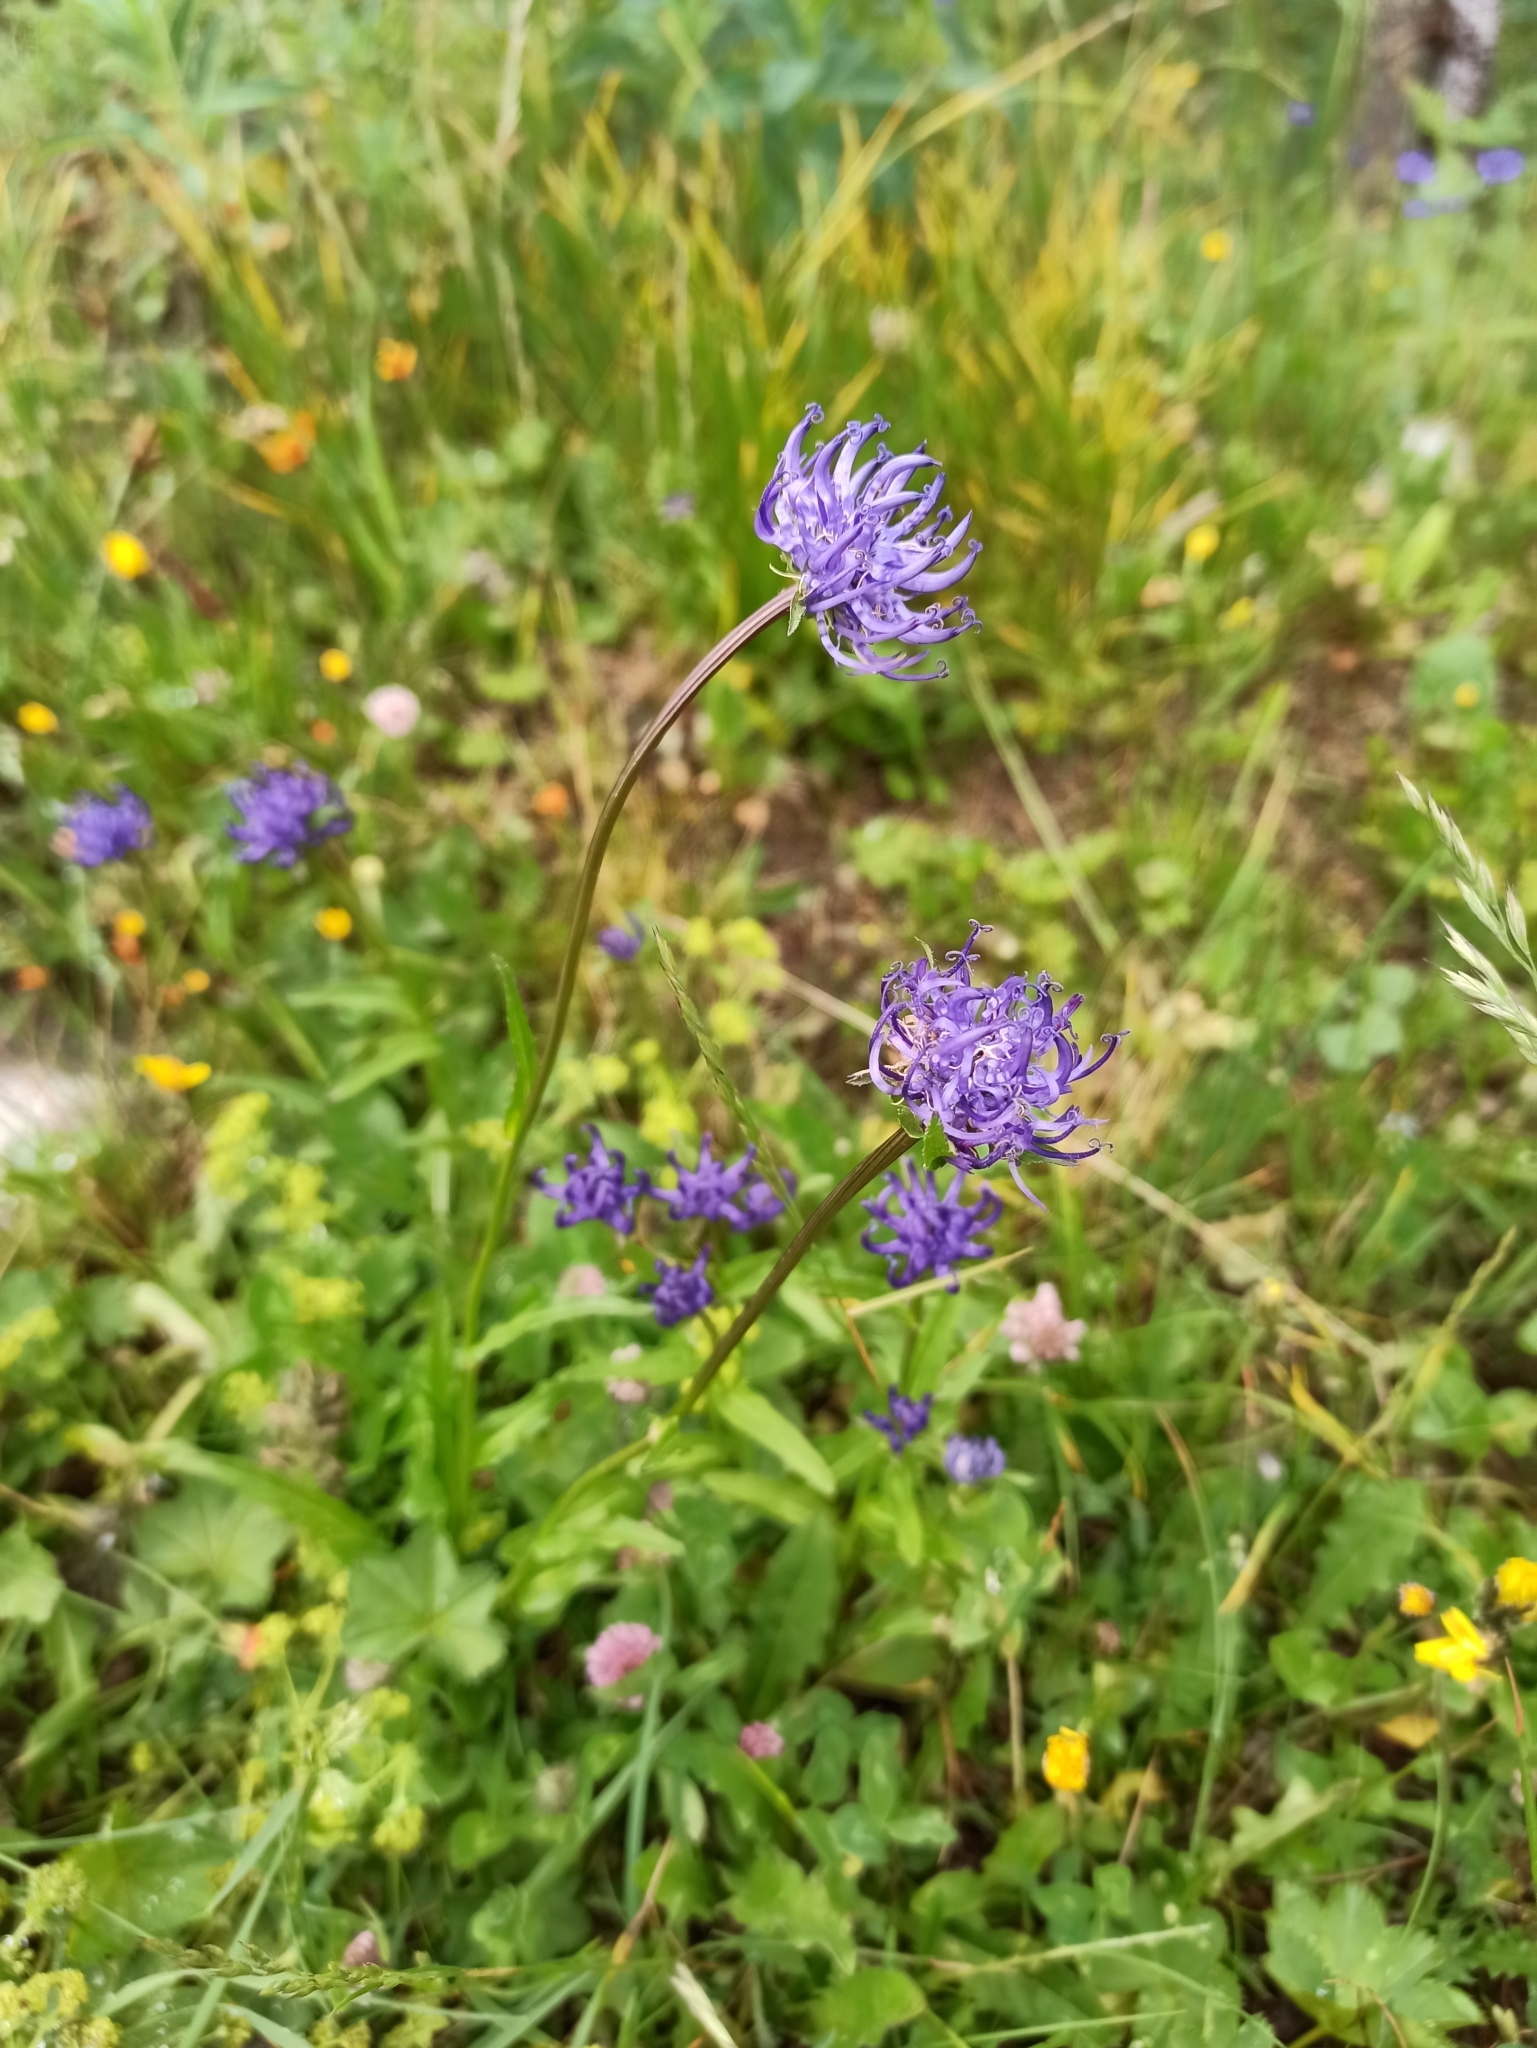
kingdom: Plantae
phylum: Tracheophyta
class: Magnoliopsida
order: Asterales
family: Campanulaceae
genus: Phyteuma
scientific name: Phyteuma orbiculare
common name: Round-headed rampion
